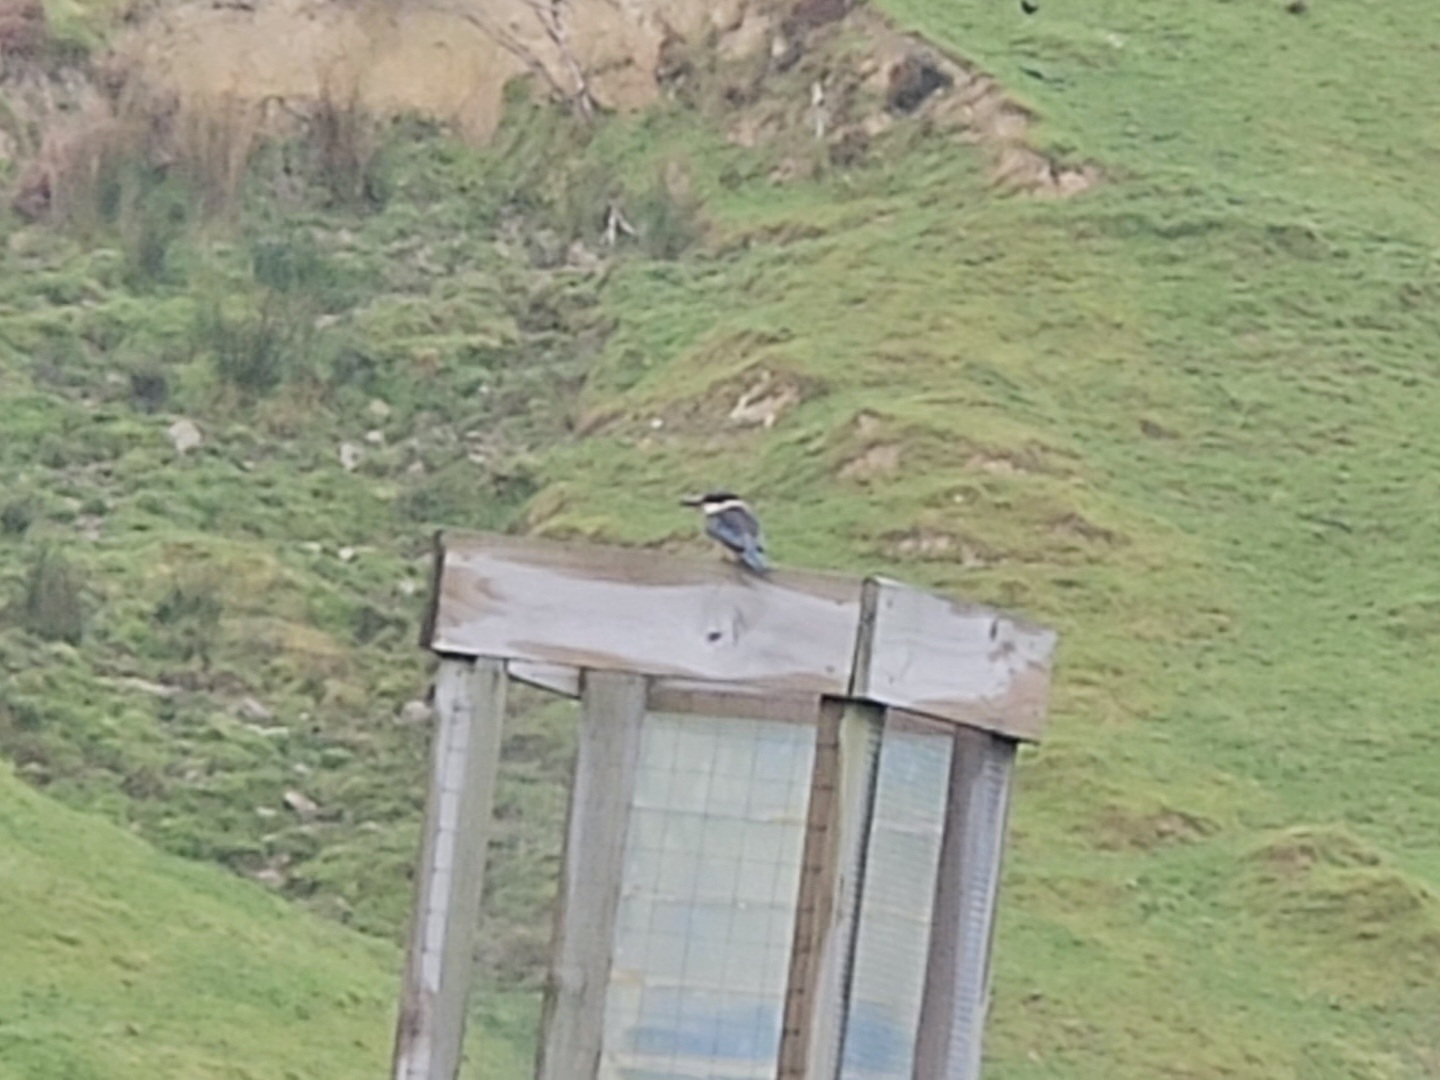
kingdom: Animalia
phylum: Chordata
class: Aves
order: Coraciiformes
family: Alcedinidae
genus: Todiramphus
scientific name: Todiramphus sanctus
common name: Sacred kingfisher
